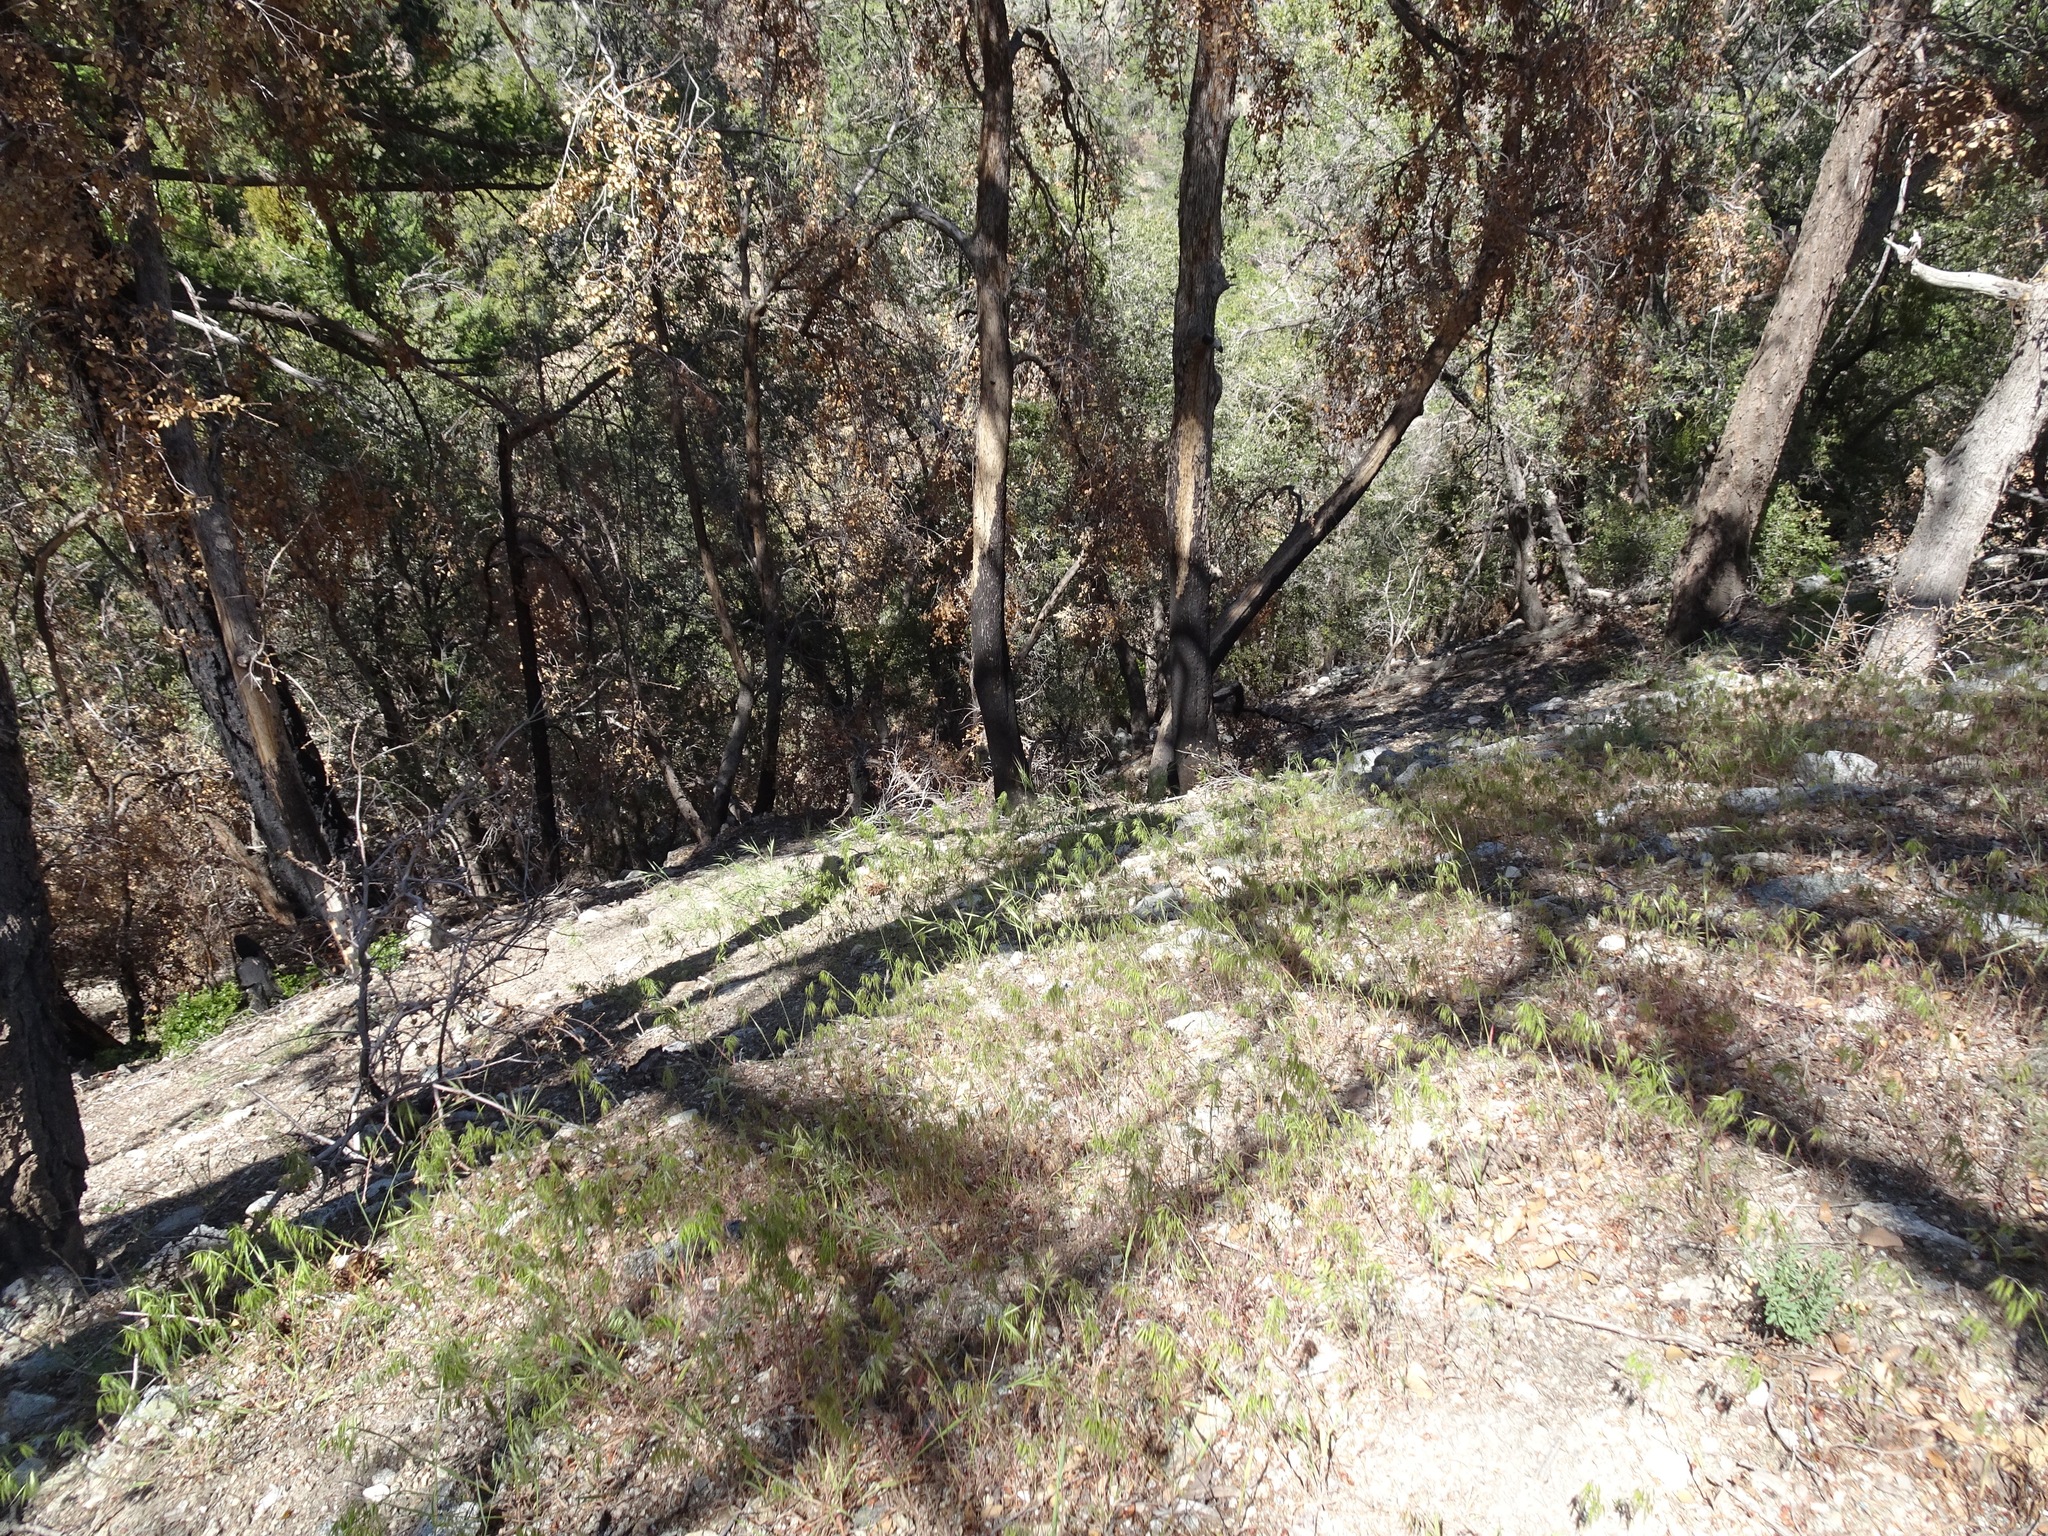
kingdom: Plantae
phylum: Tracheophyta
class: Liliopsida
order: Poales
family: Poaceae
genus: Bromus
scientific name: Bromus tectorum
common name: Cheatgrass
